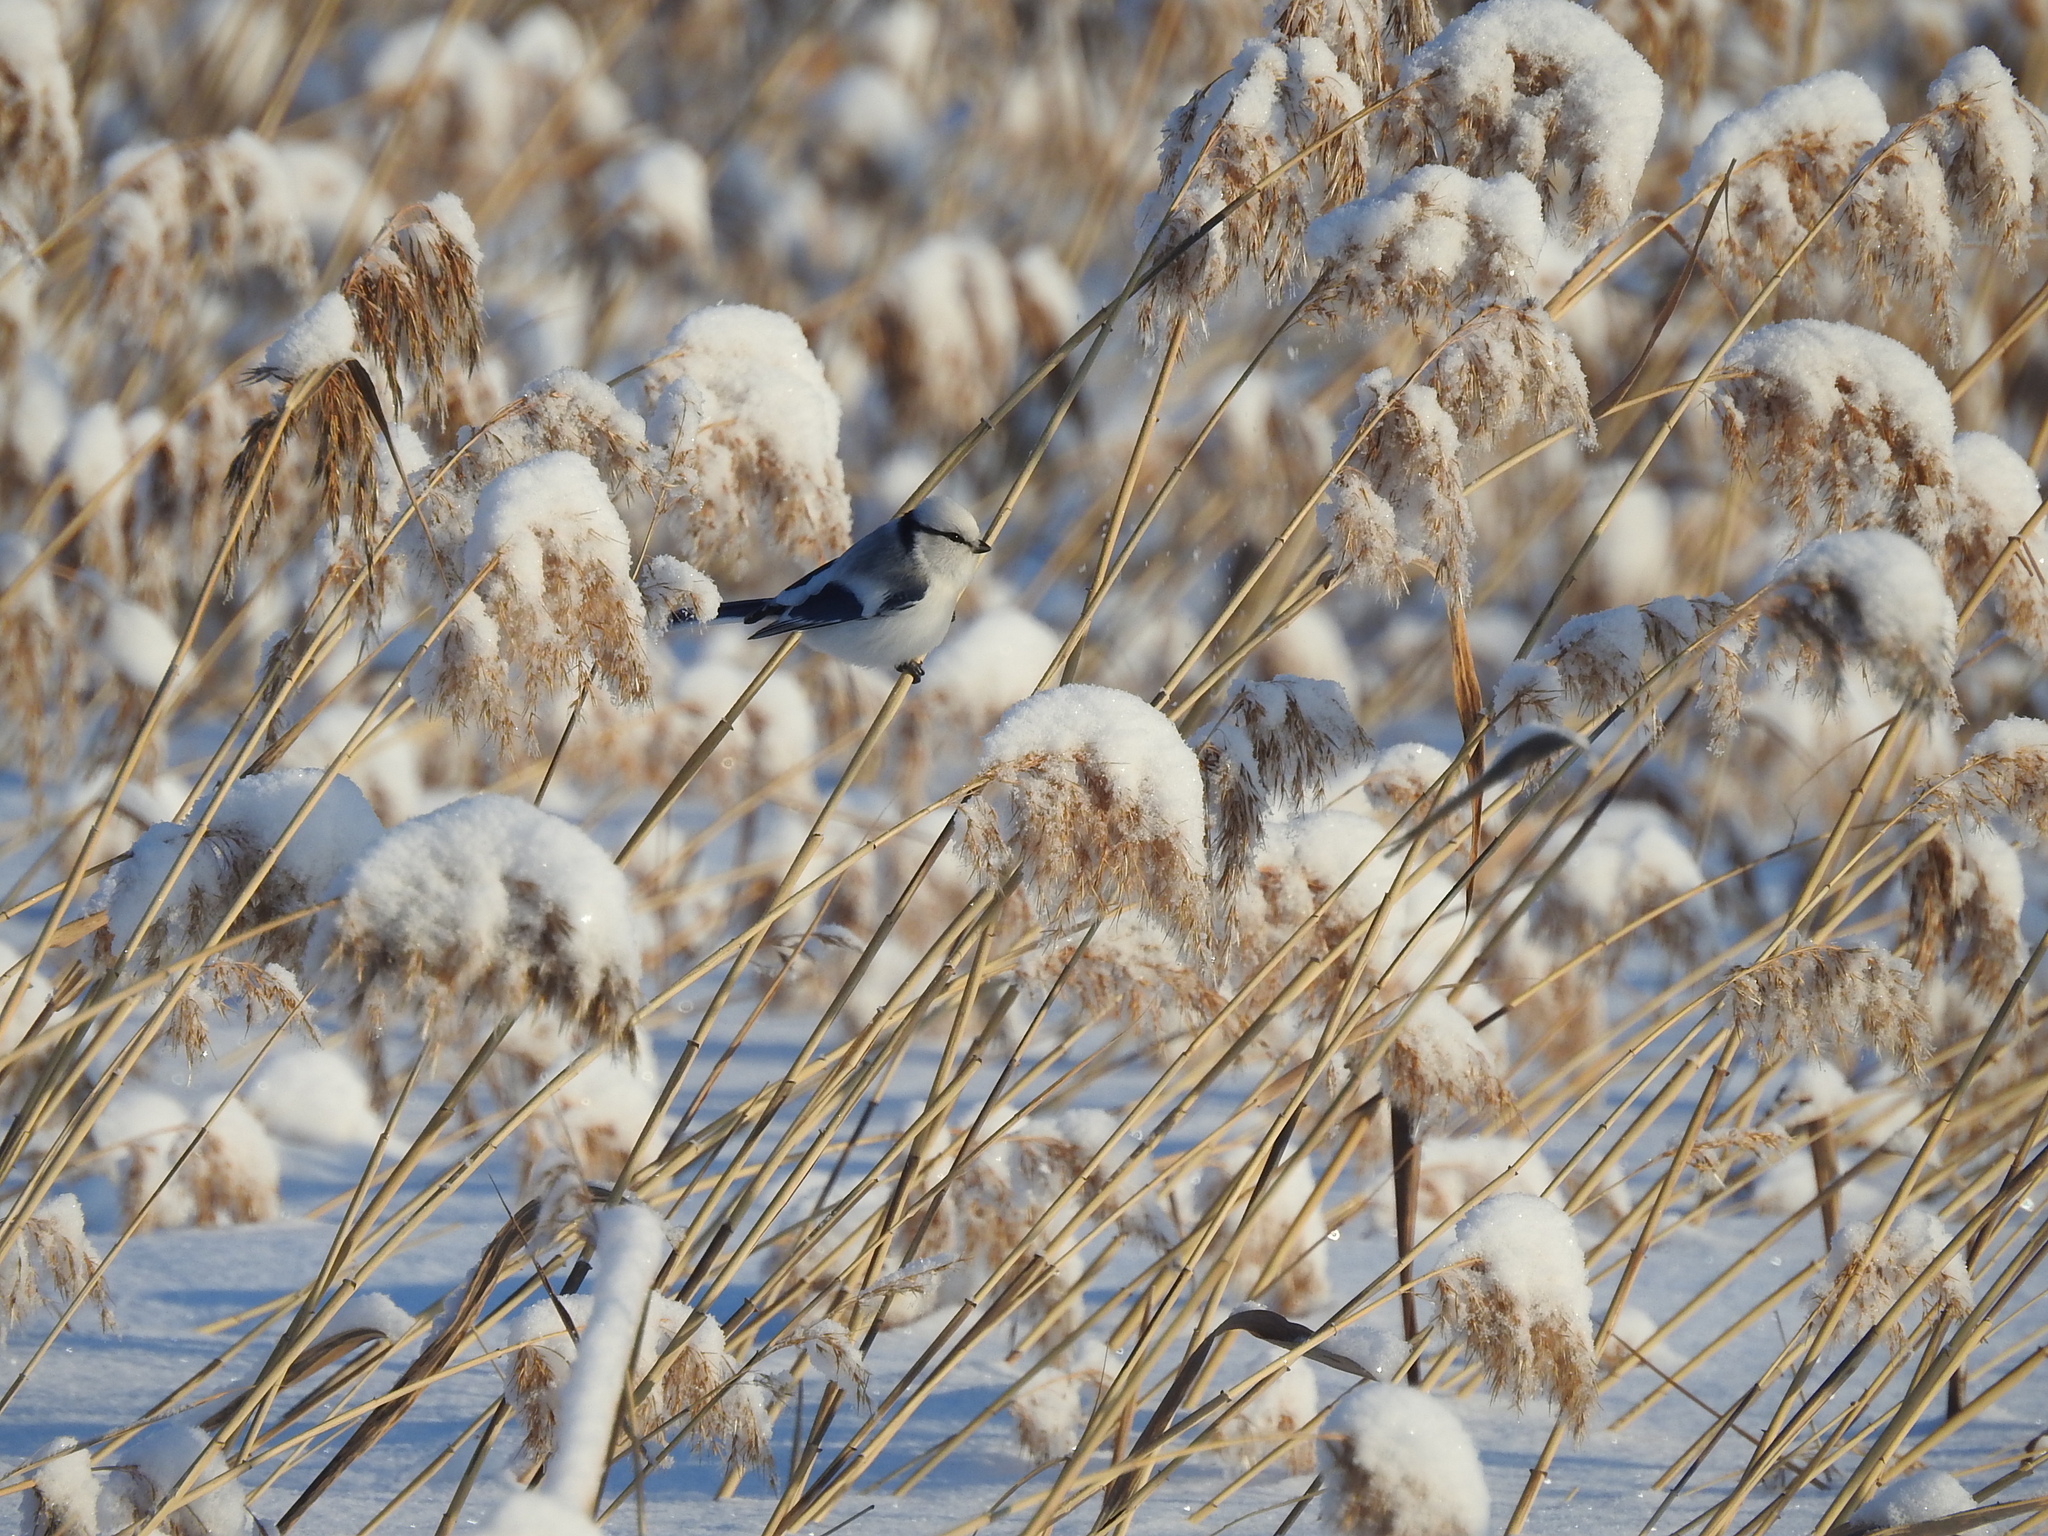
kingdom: Animalia
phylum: Chordata
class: Aves
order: Passeriformes
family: Paridae
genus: Cyanistes
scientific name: Cyanistes cyanus
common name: Azure tit
